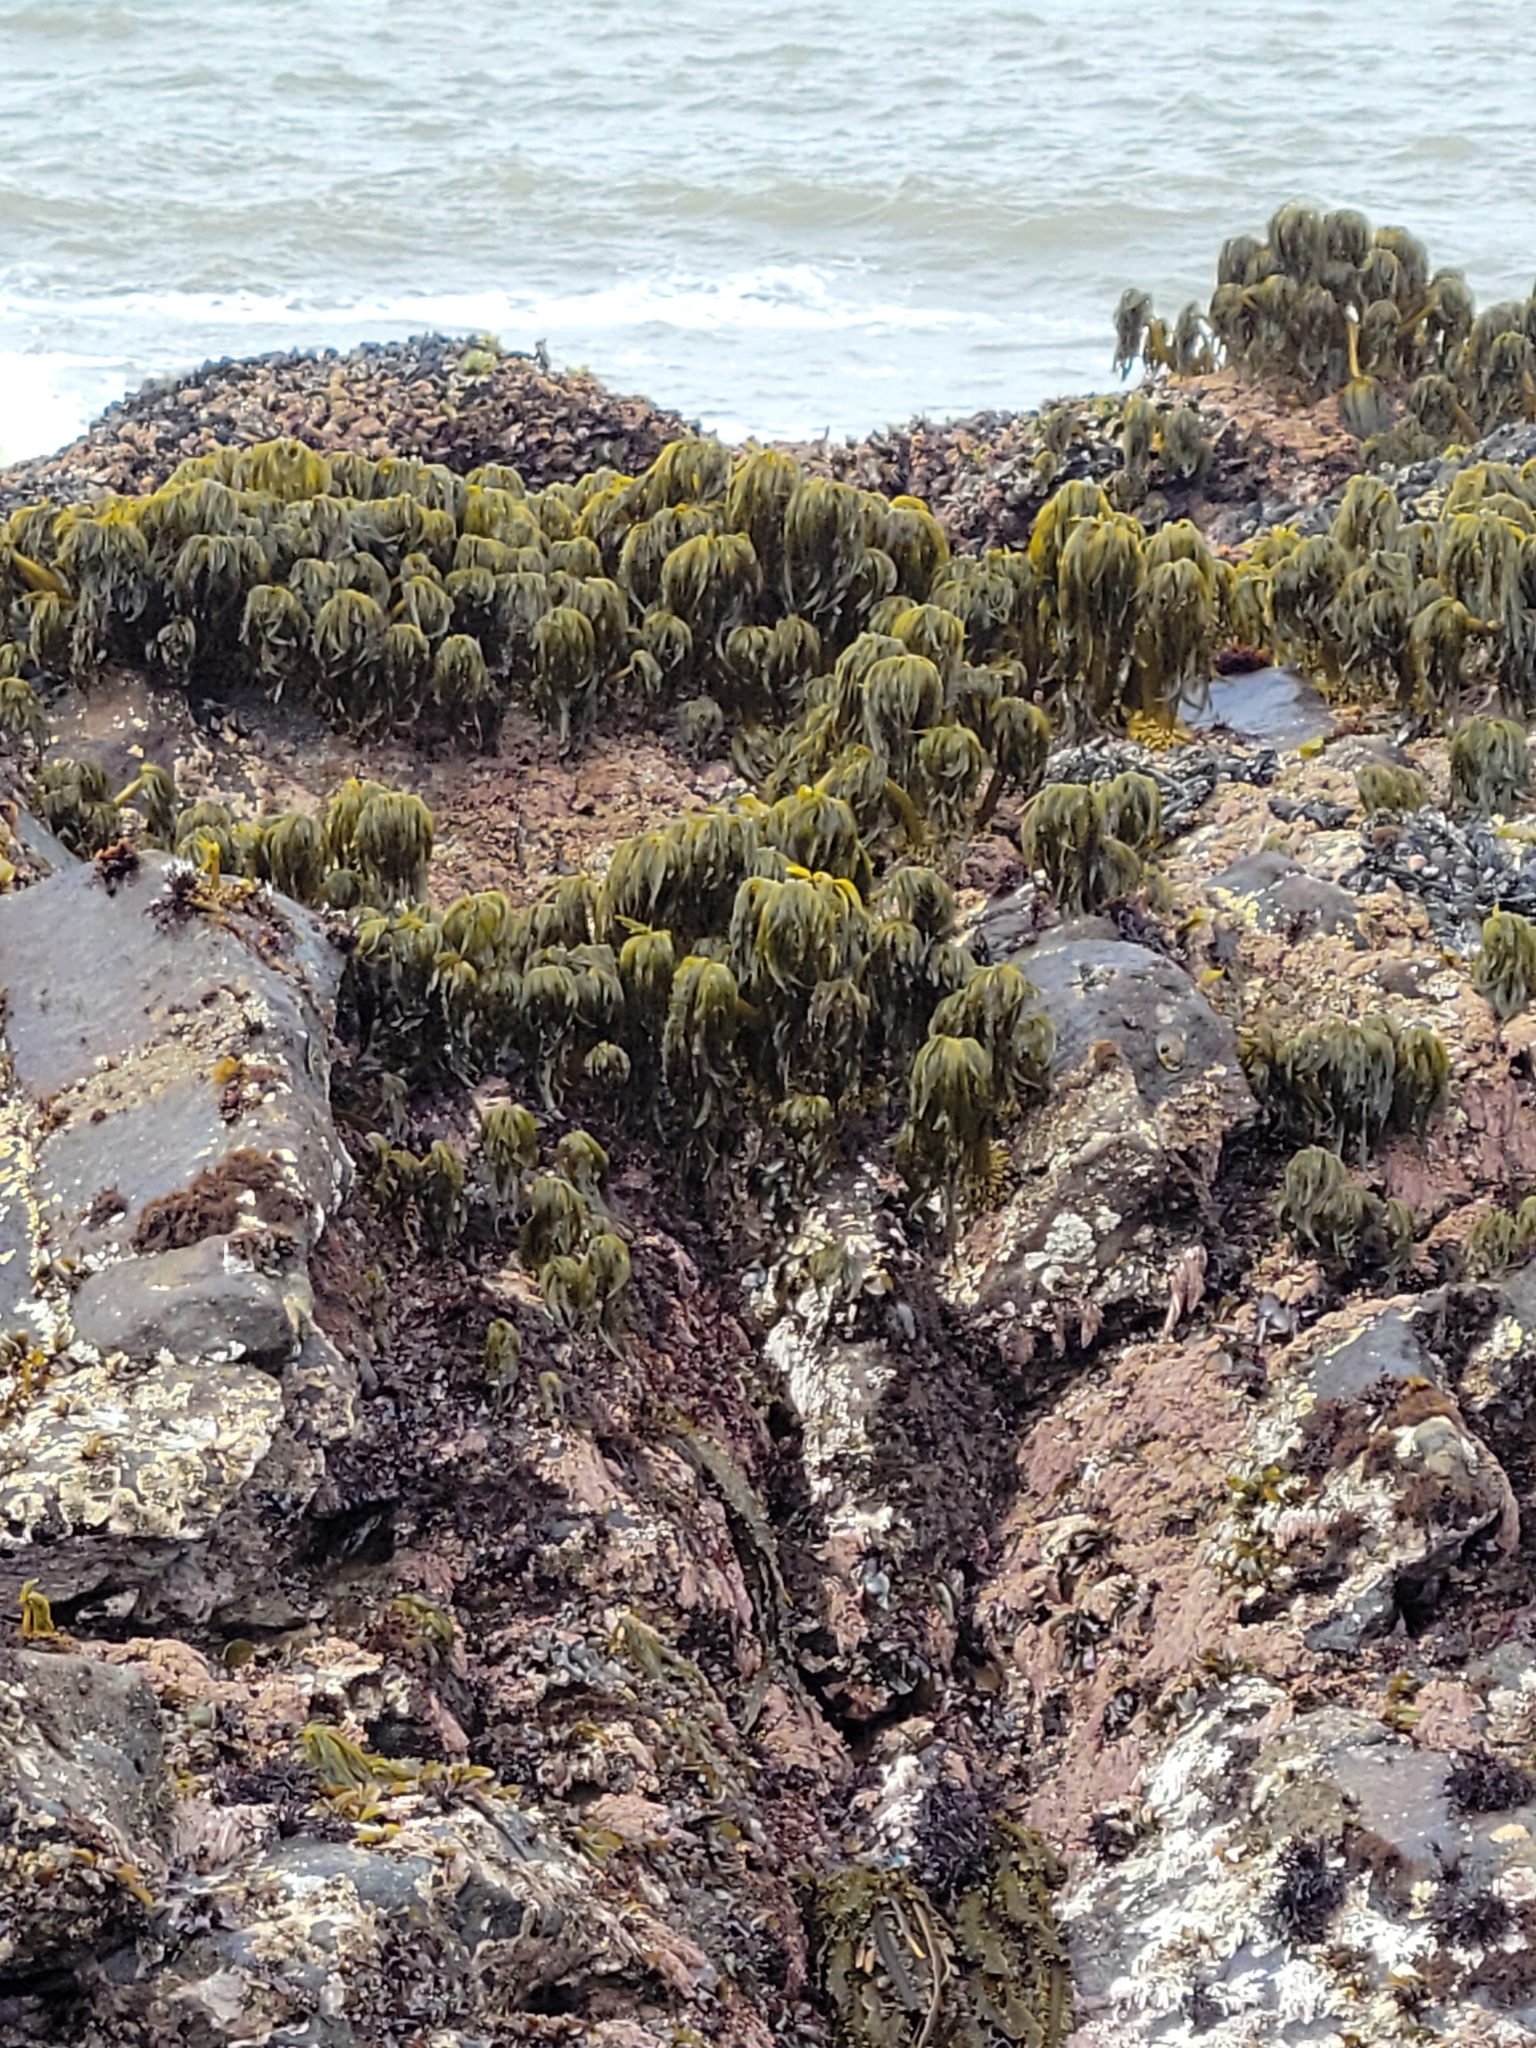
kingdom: Chromista
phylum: Ochrophyta
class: Phaeophyceae
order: Laminariales
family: Laminariaceae
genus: Postelsia
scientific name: Postelsia palmiformis
